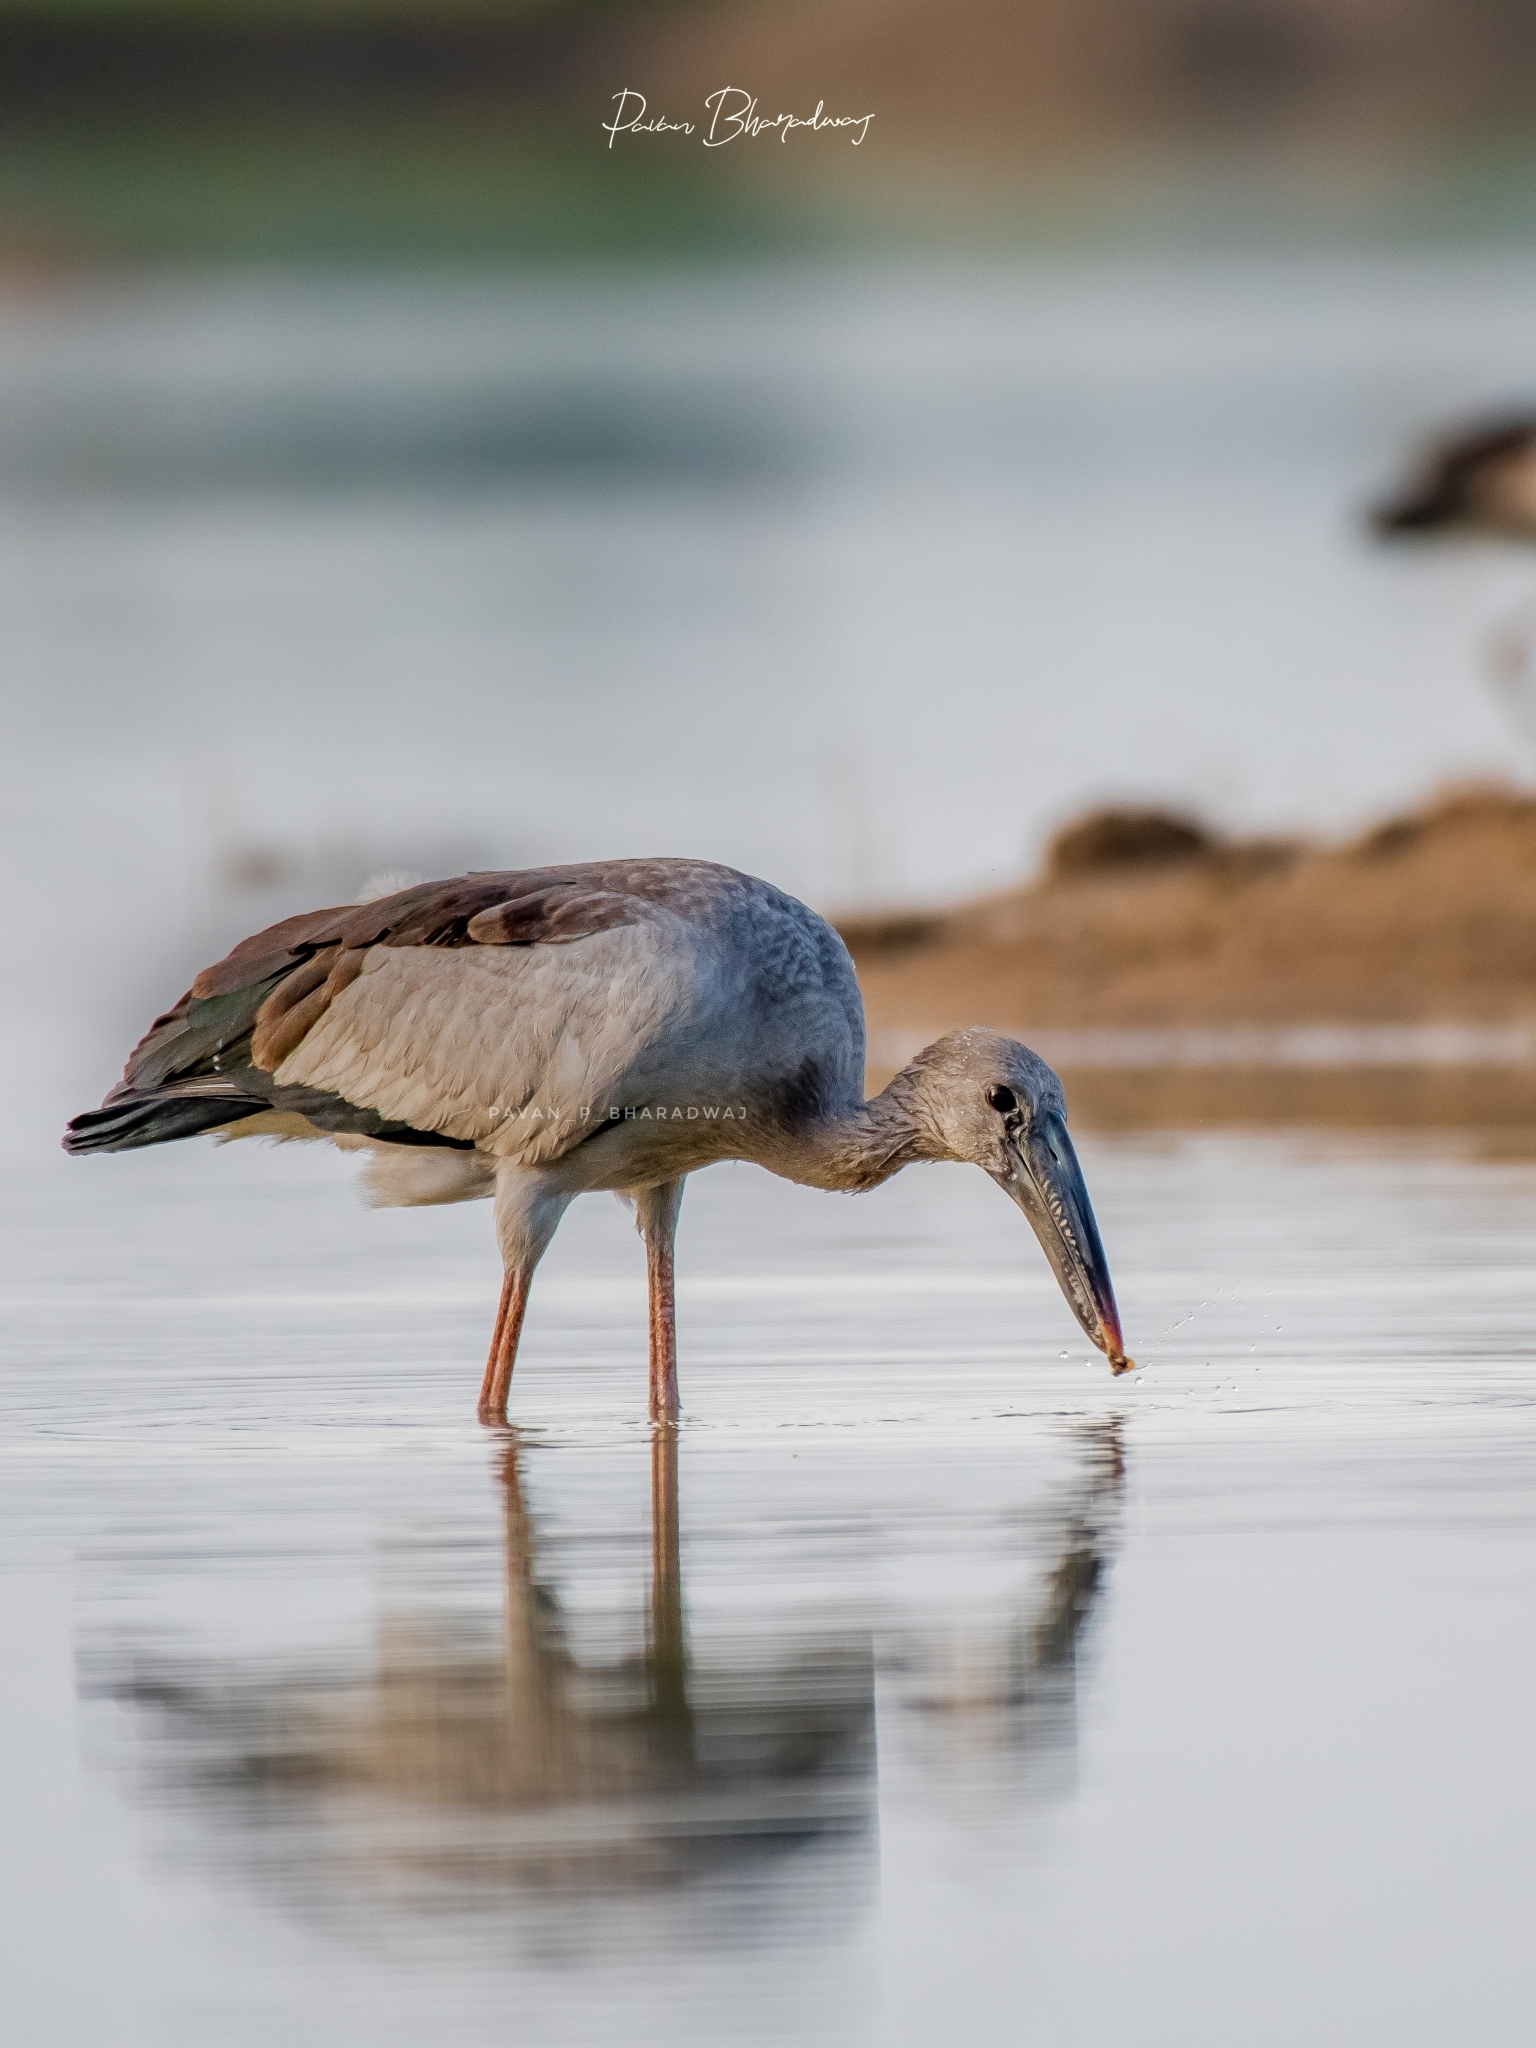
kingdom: Animalia
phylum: Chordata
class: Aves
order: Ciconiiformes
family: Ciconiidae
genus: Anastomus
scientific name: Anastomus oscitans
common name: Asian openbill
